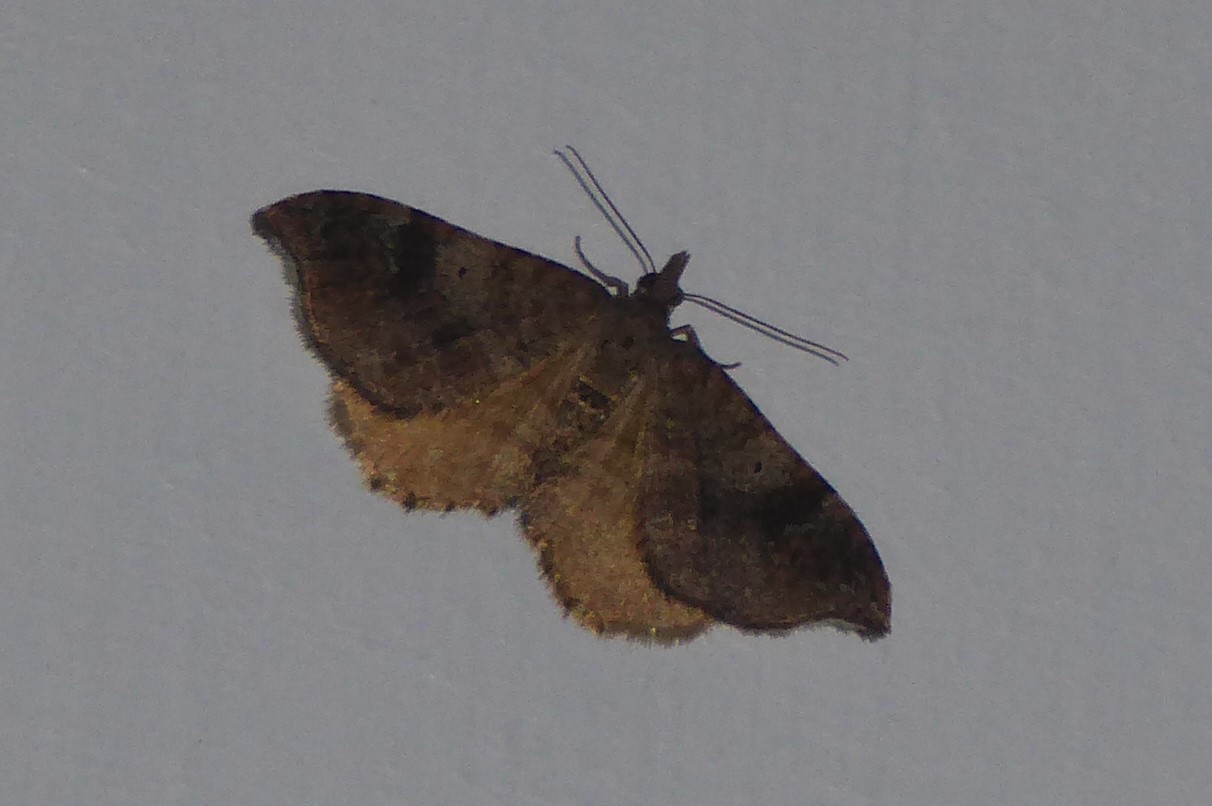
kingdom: Animalia
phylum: Arthropoda
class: Insecta
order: Lepidoptera
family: Geometridae
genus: Homodotis
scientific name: Homodotis megaspilata
